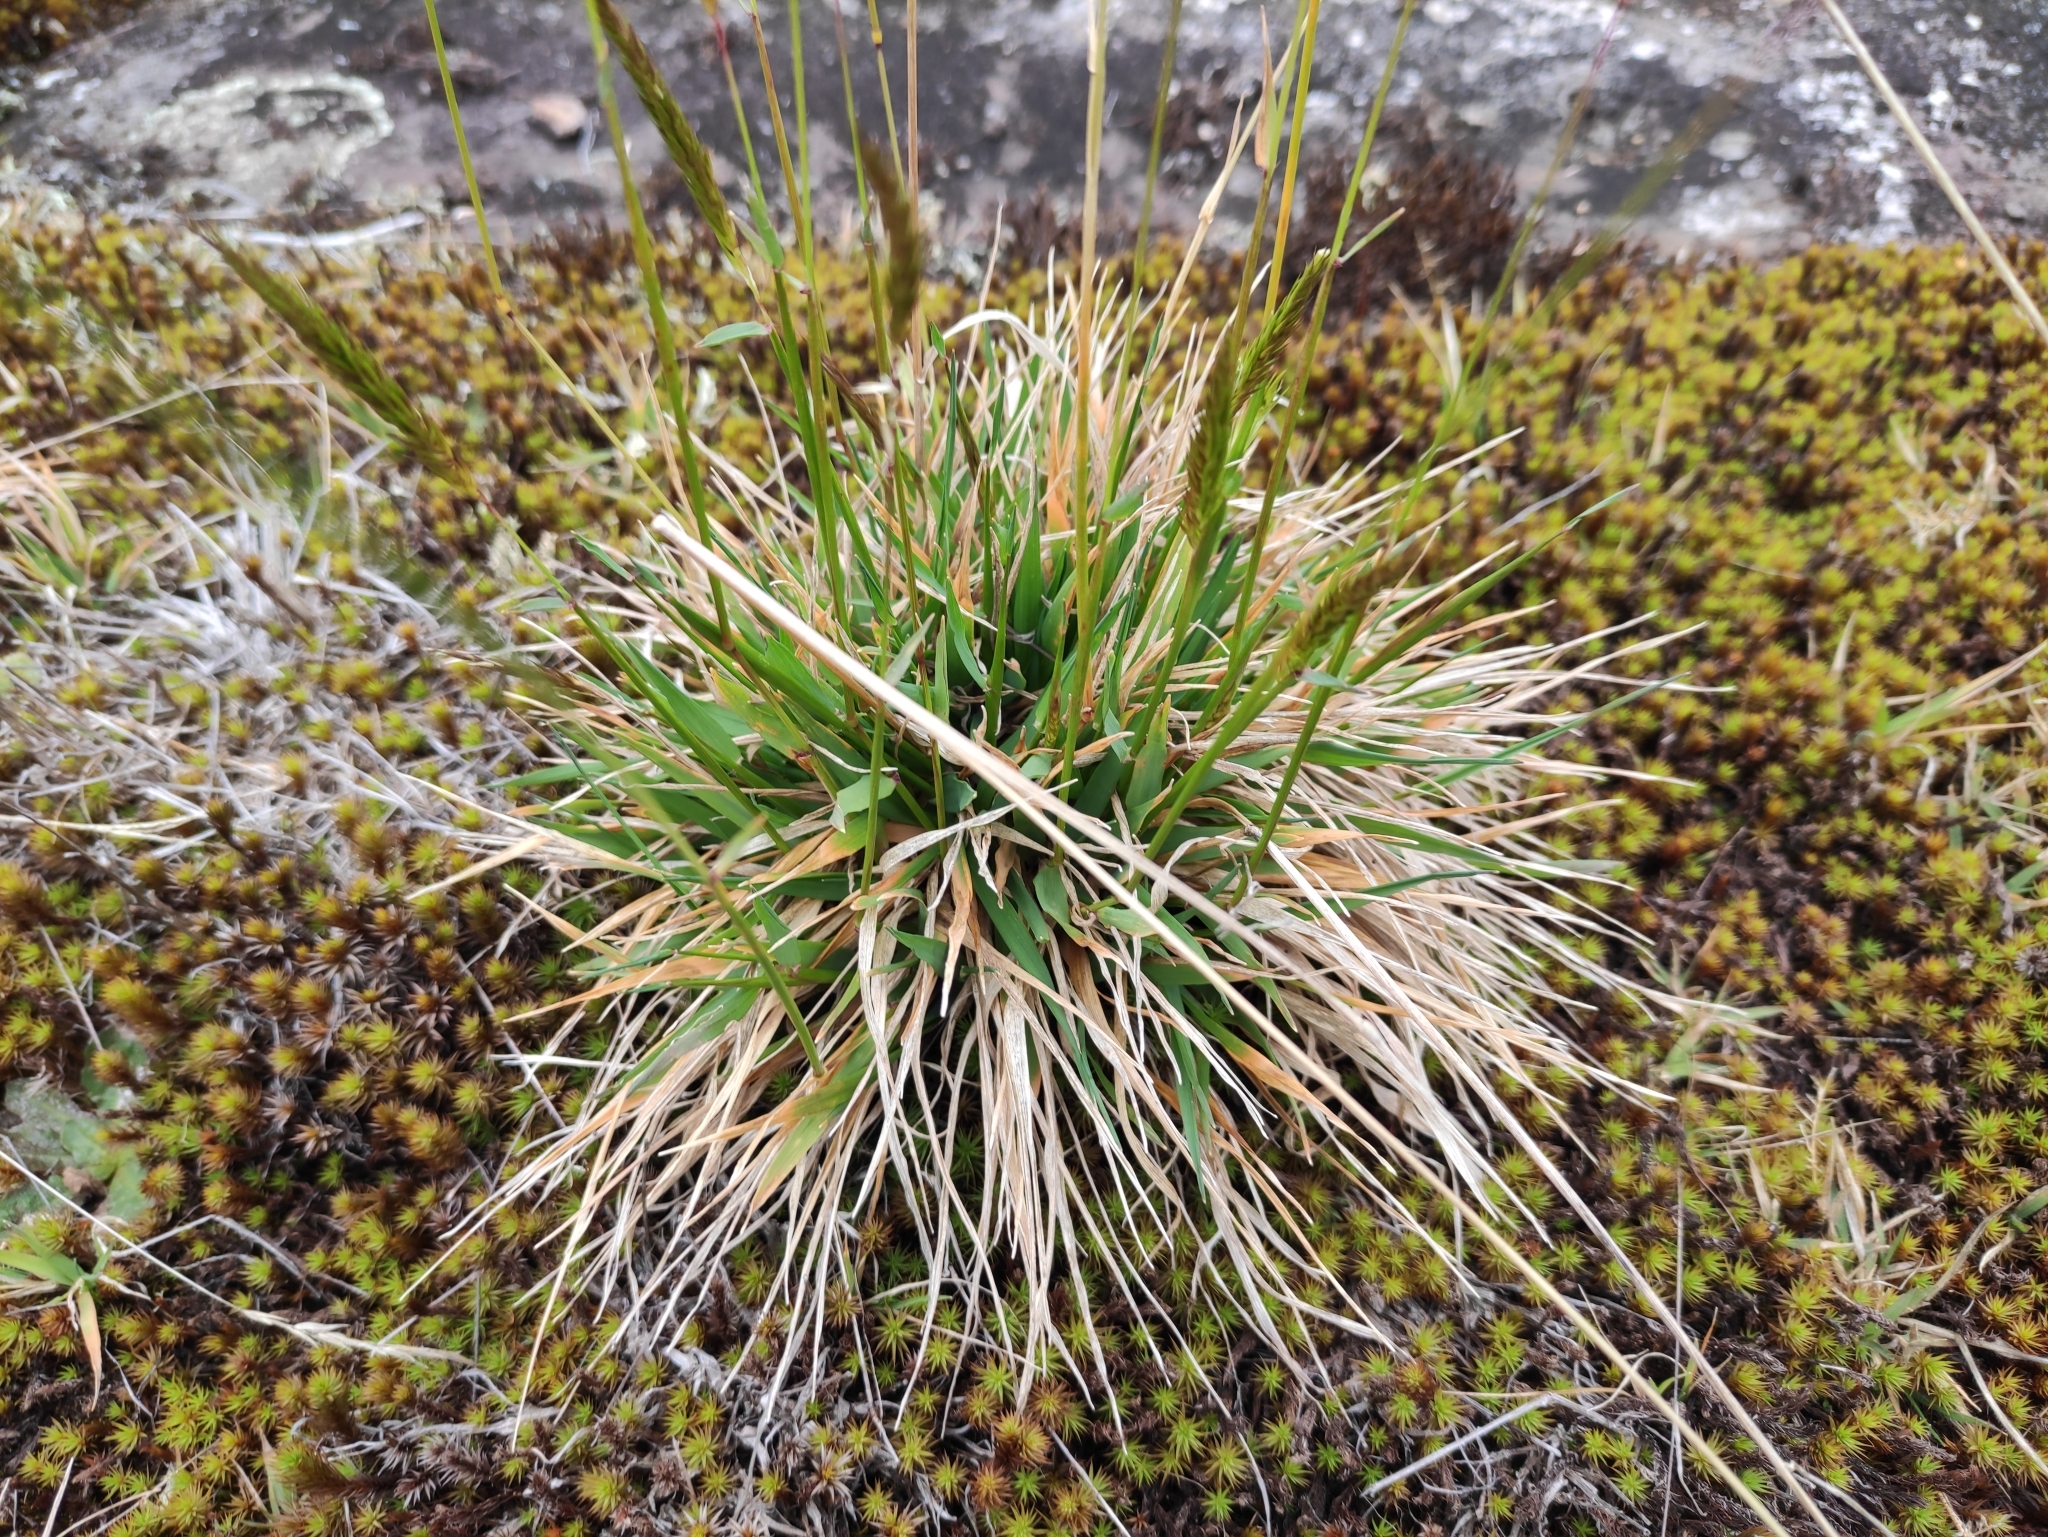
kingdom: Plantae
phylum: Tracheophyta
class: Liliopsida
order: Poales
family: Poaceae
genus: Anthoxanthum
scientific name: Anthoxanthum odoratum
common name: Sweet vernalgrass
